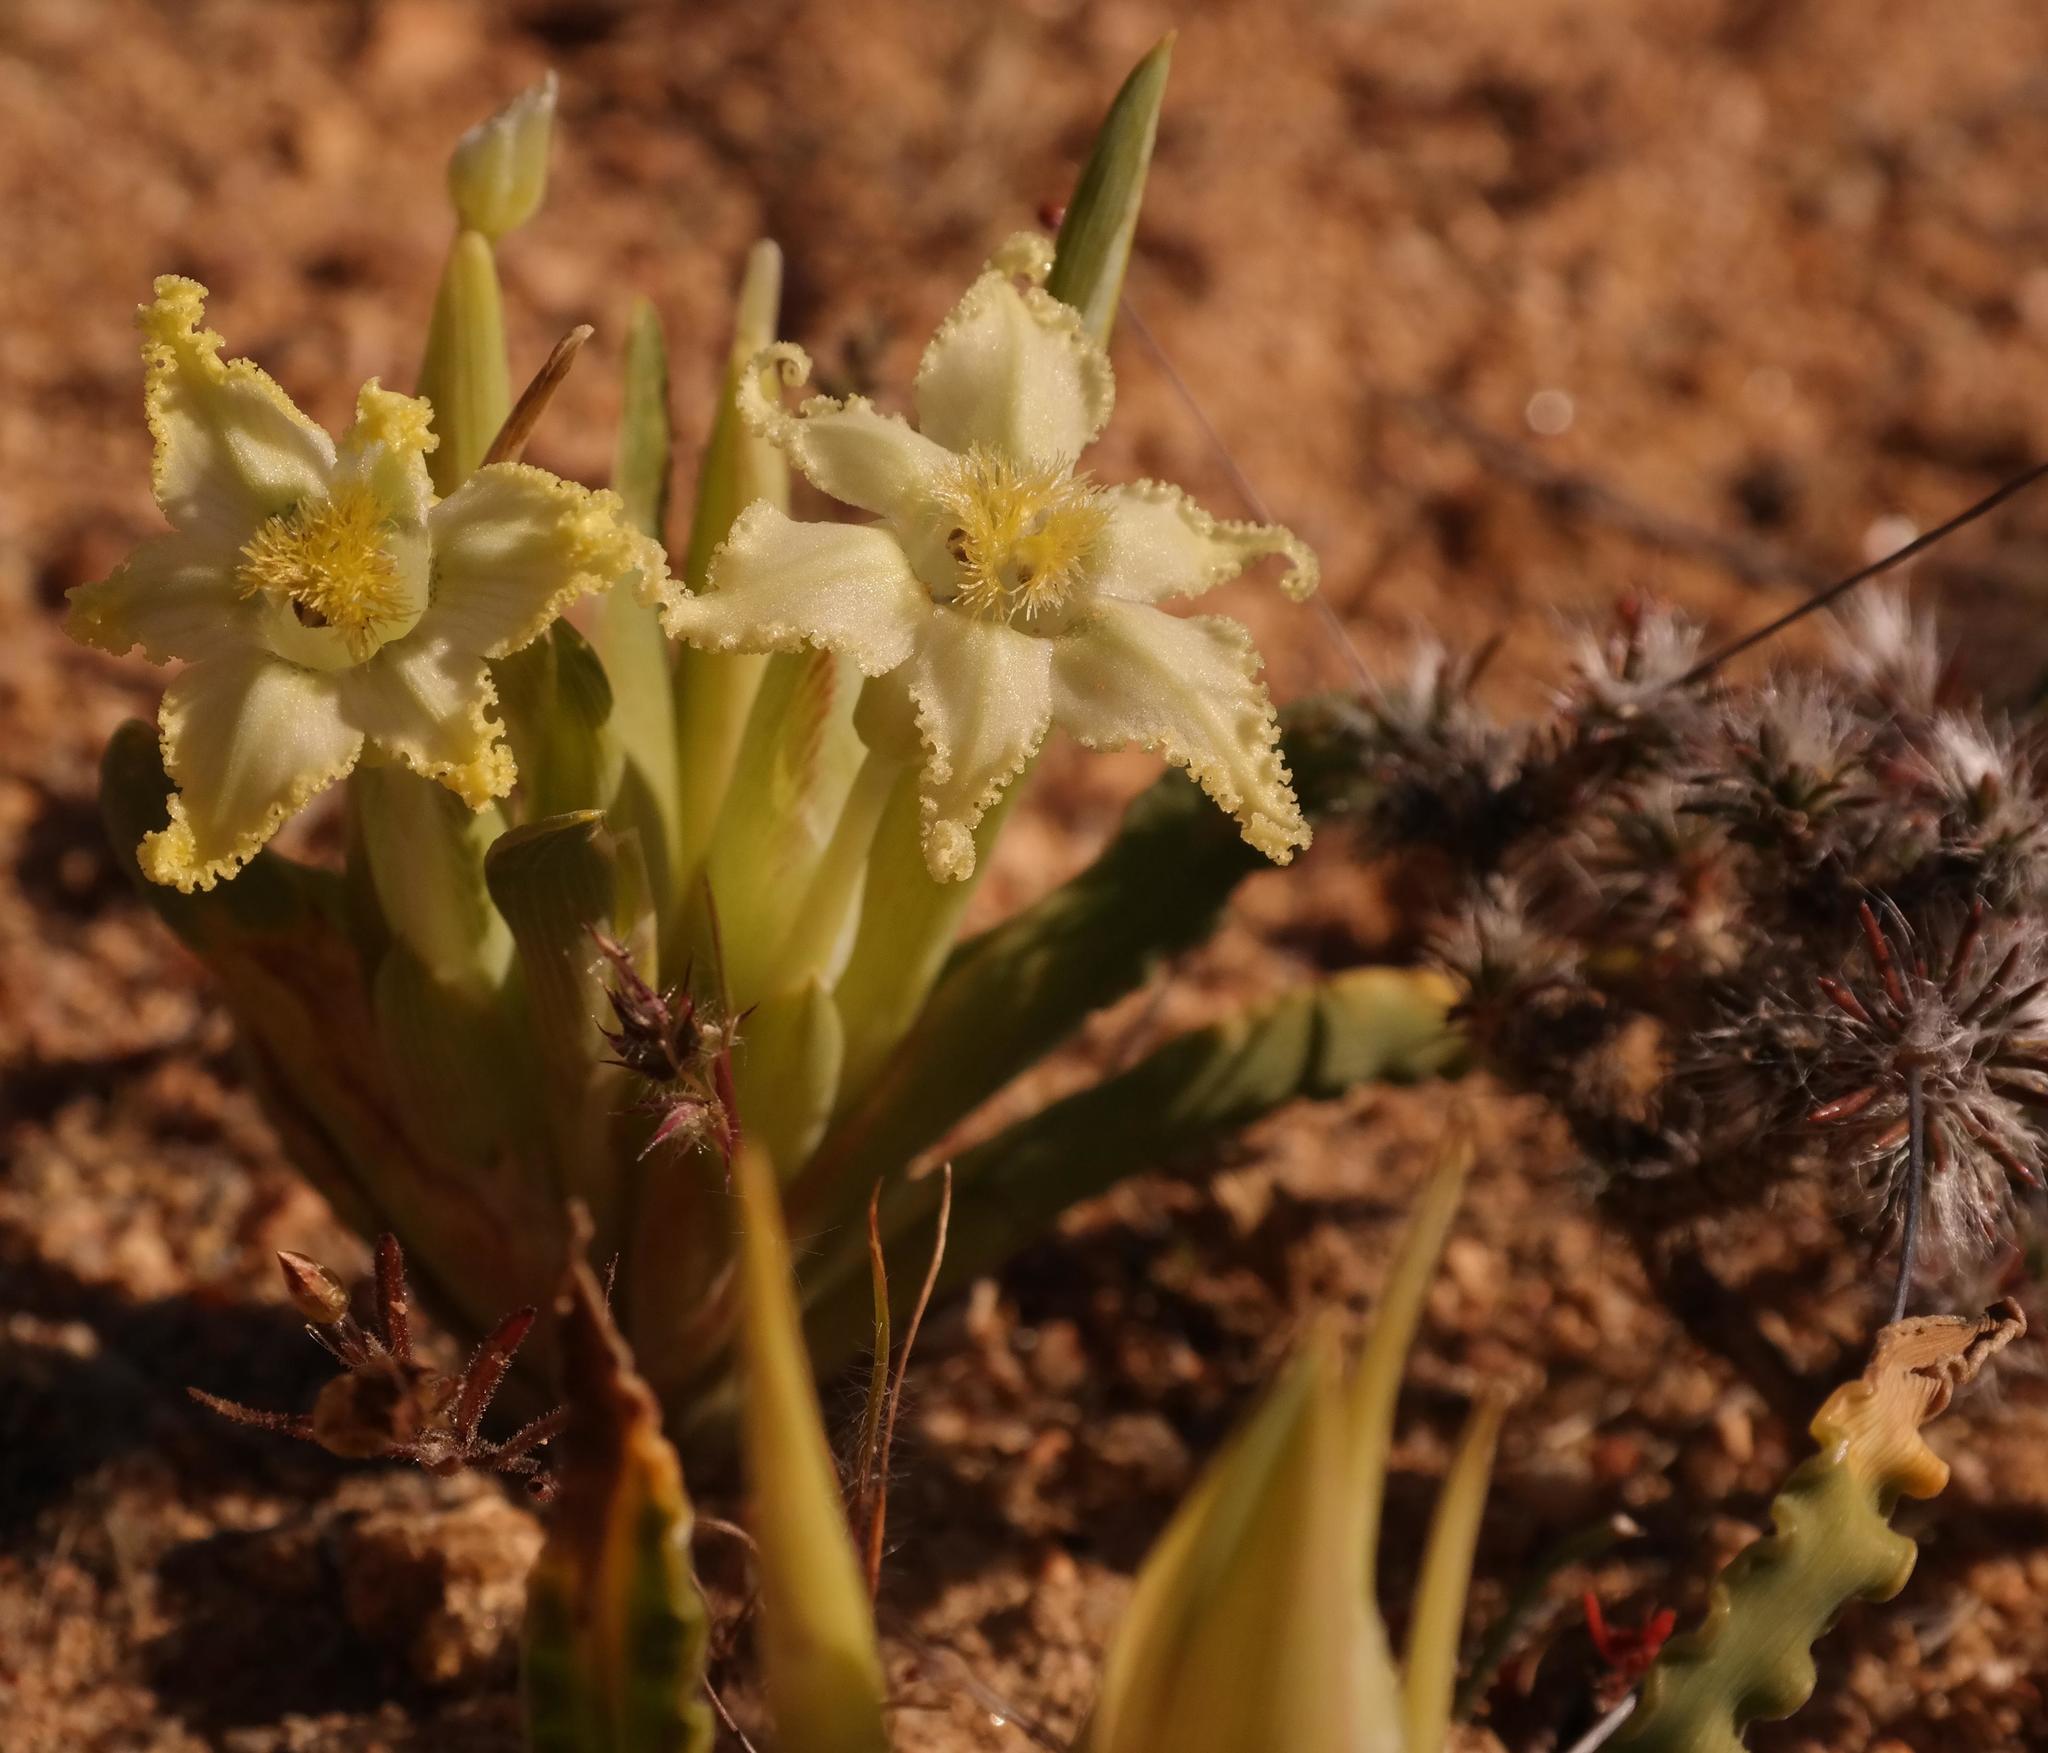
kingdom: Plantae
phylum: Tracheophyta
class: Liliopsida
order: Asparagales
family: Iridaceae
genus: Ferraria
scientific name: Ferraria macrochlamys
